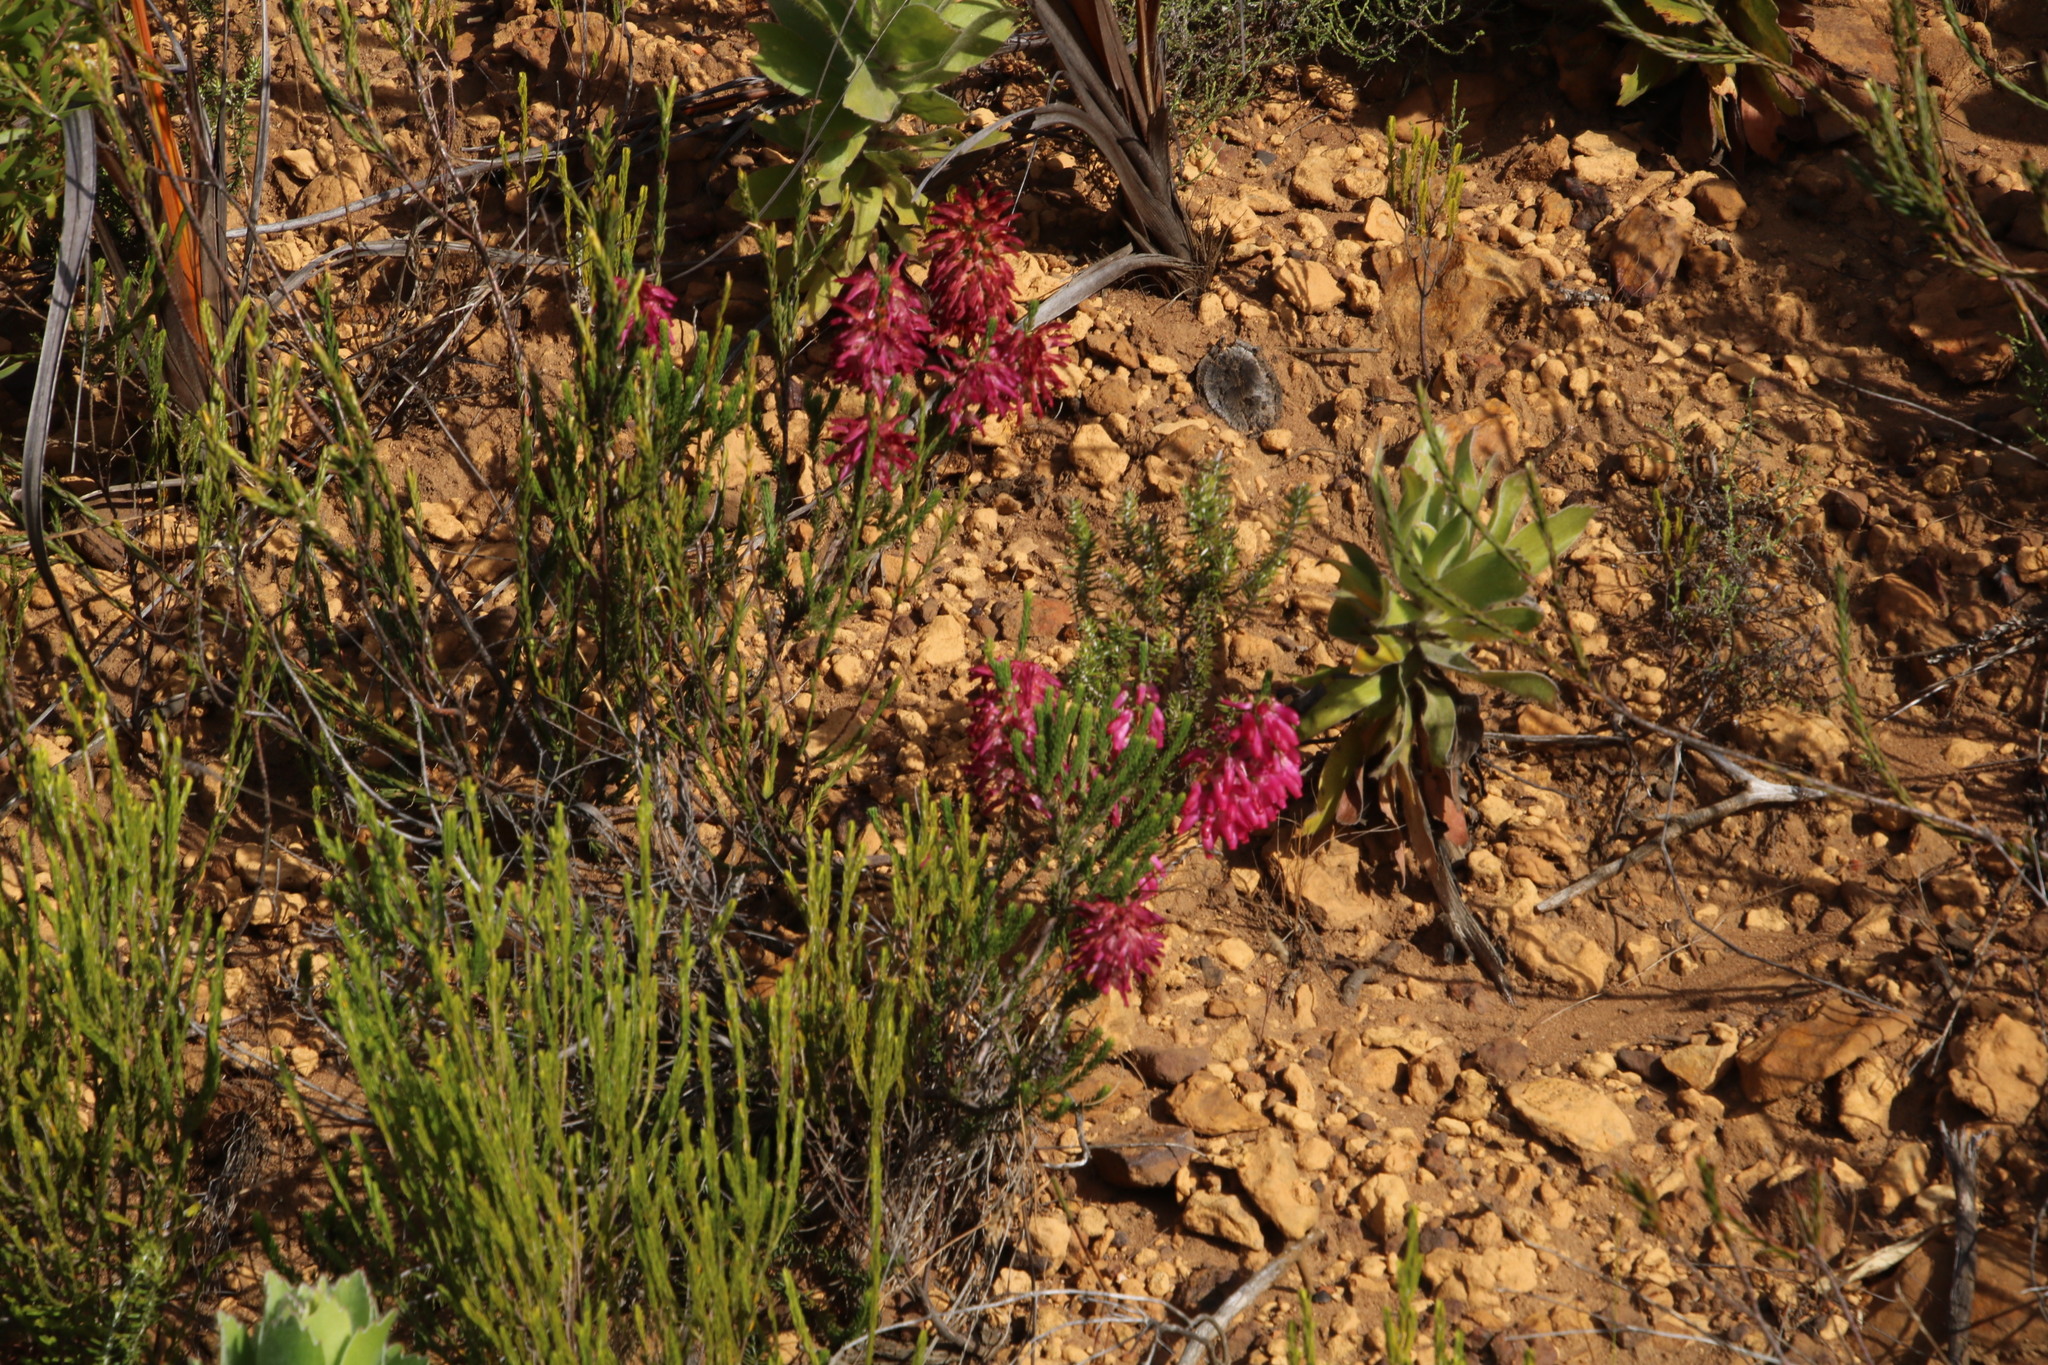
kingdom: Plantae
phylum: Tracheophyta
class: Magnoliopsida
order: Ericales
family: Ericaceae
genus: Erica
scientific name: Erica mammosa
